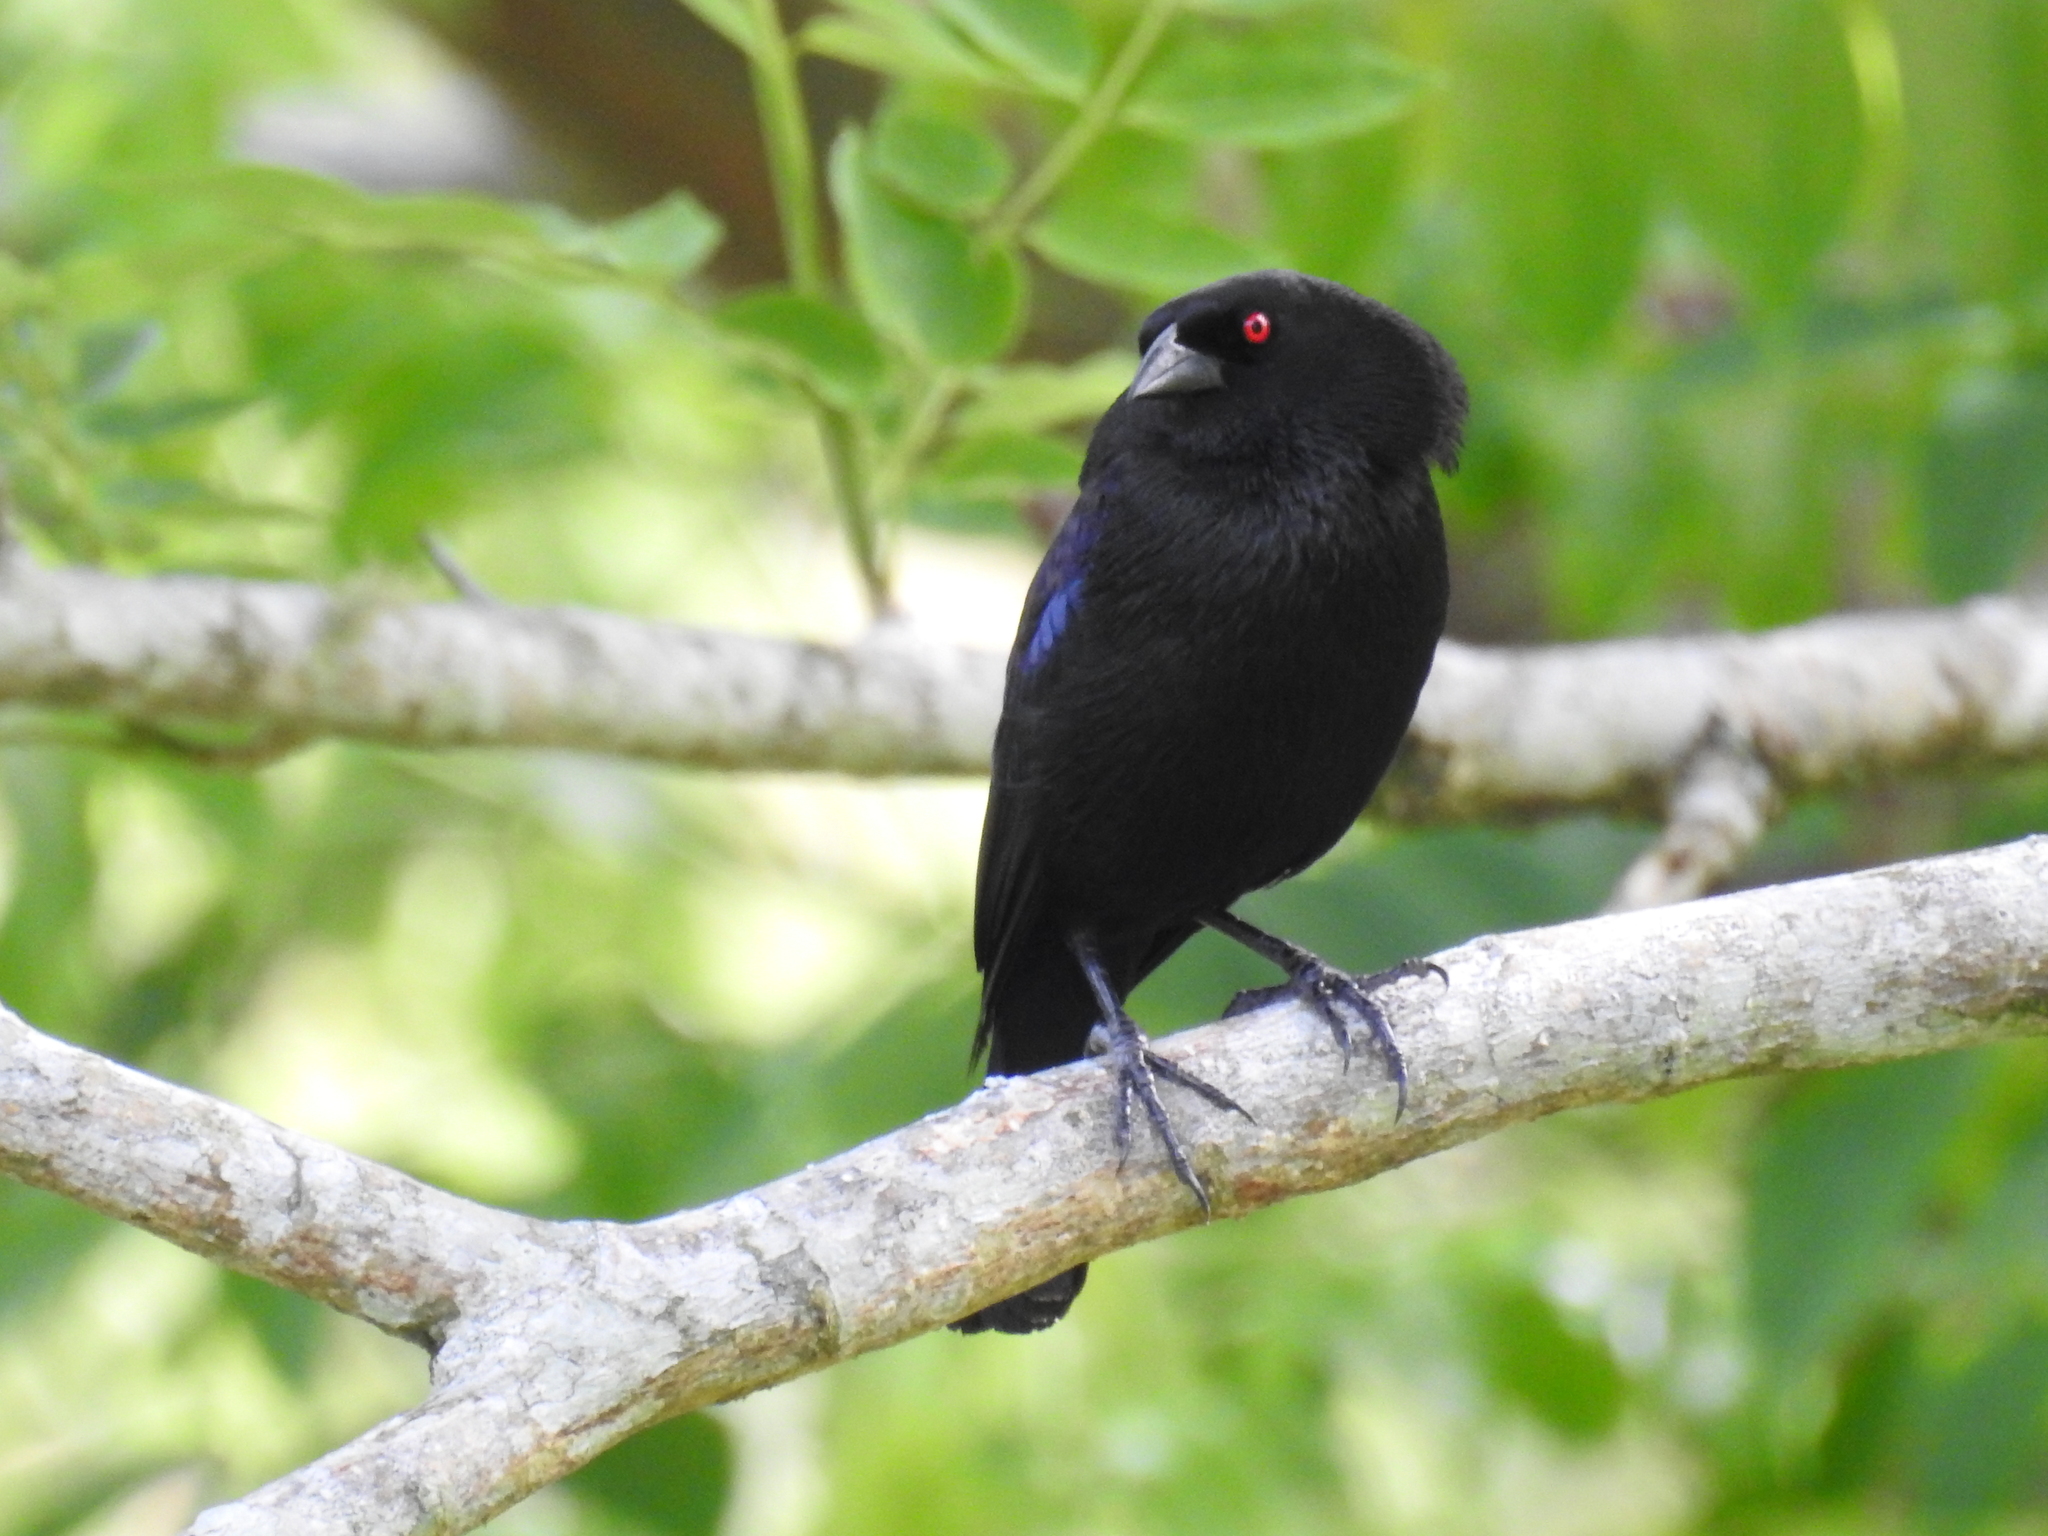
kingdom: Animalia
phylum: Chordata
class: Aves
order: Passeriformes
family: Icteridae
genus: Molothrus
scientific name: Molothrus aeneus
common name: Bronzed cowbird
